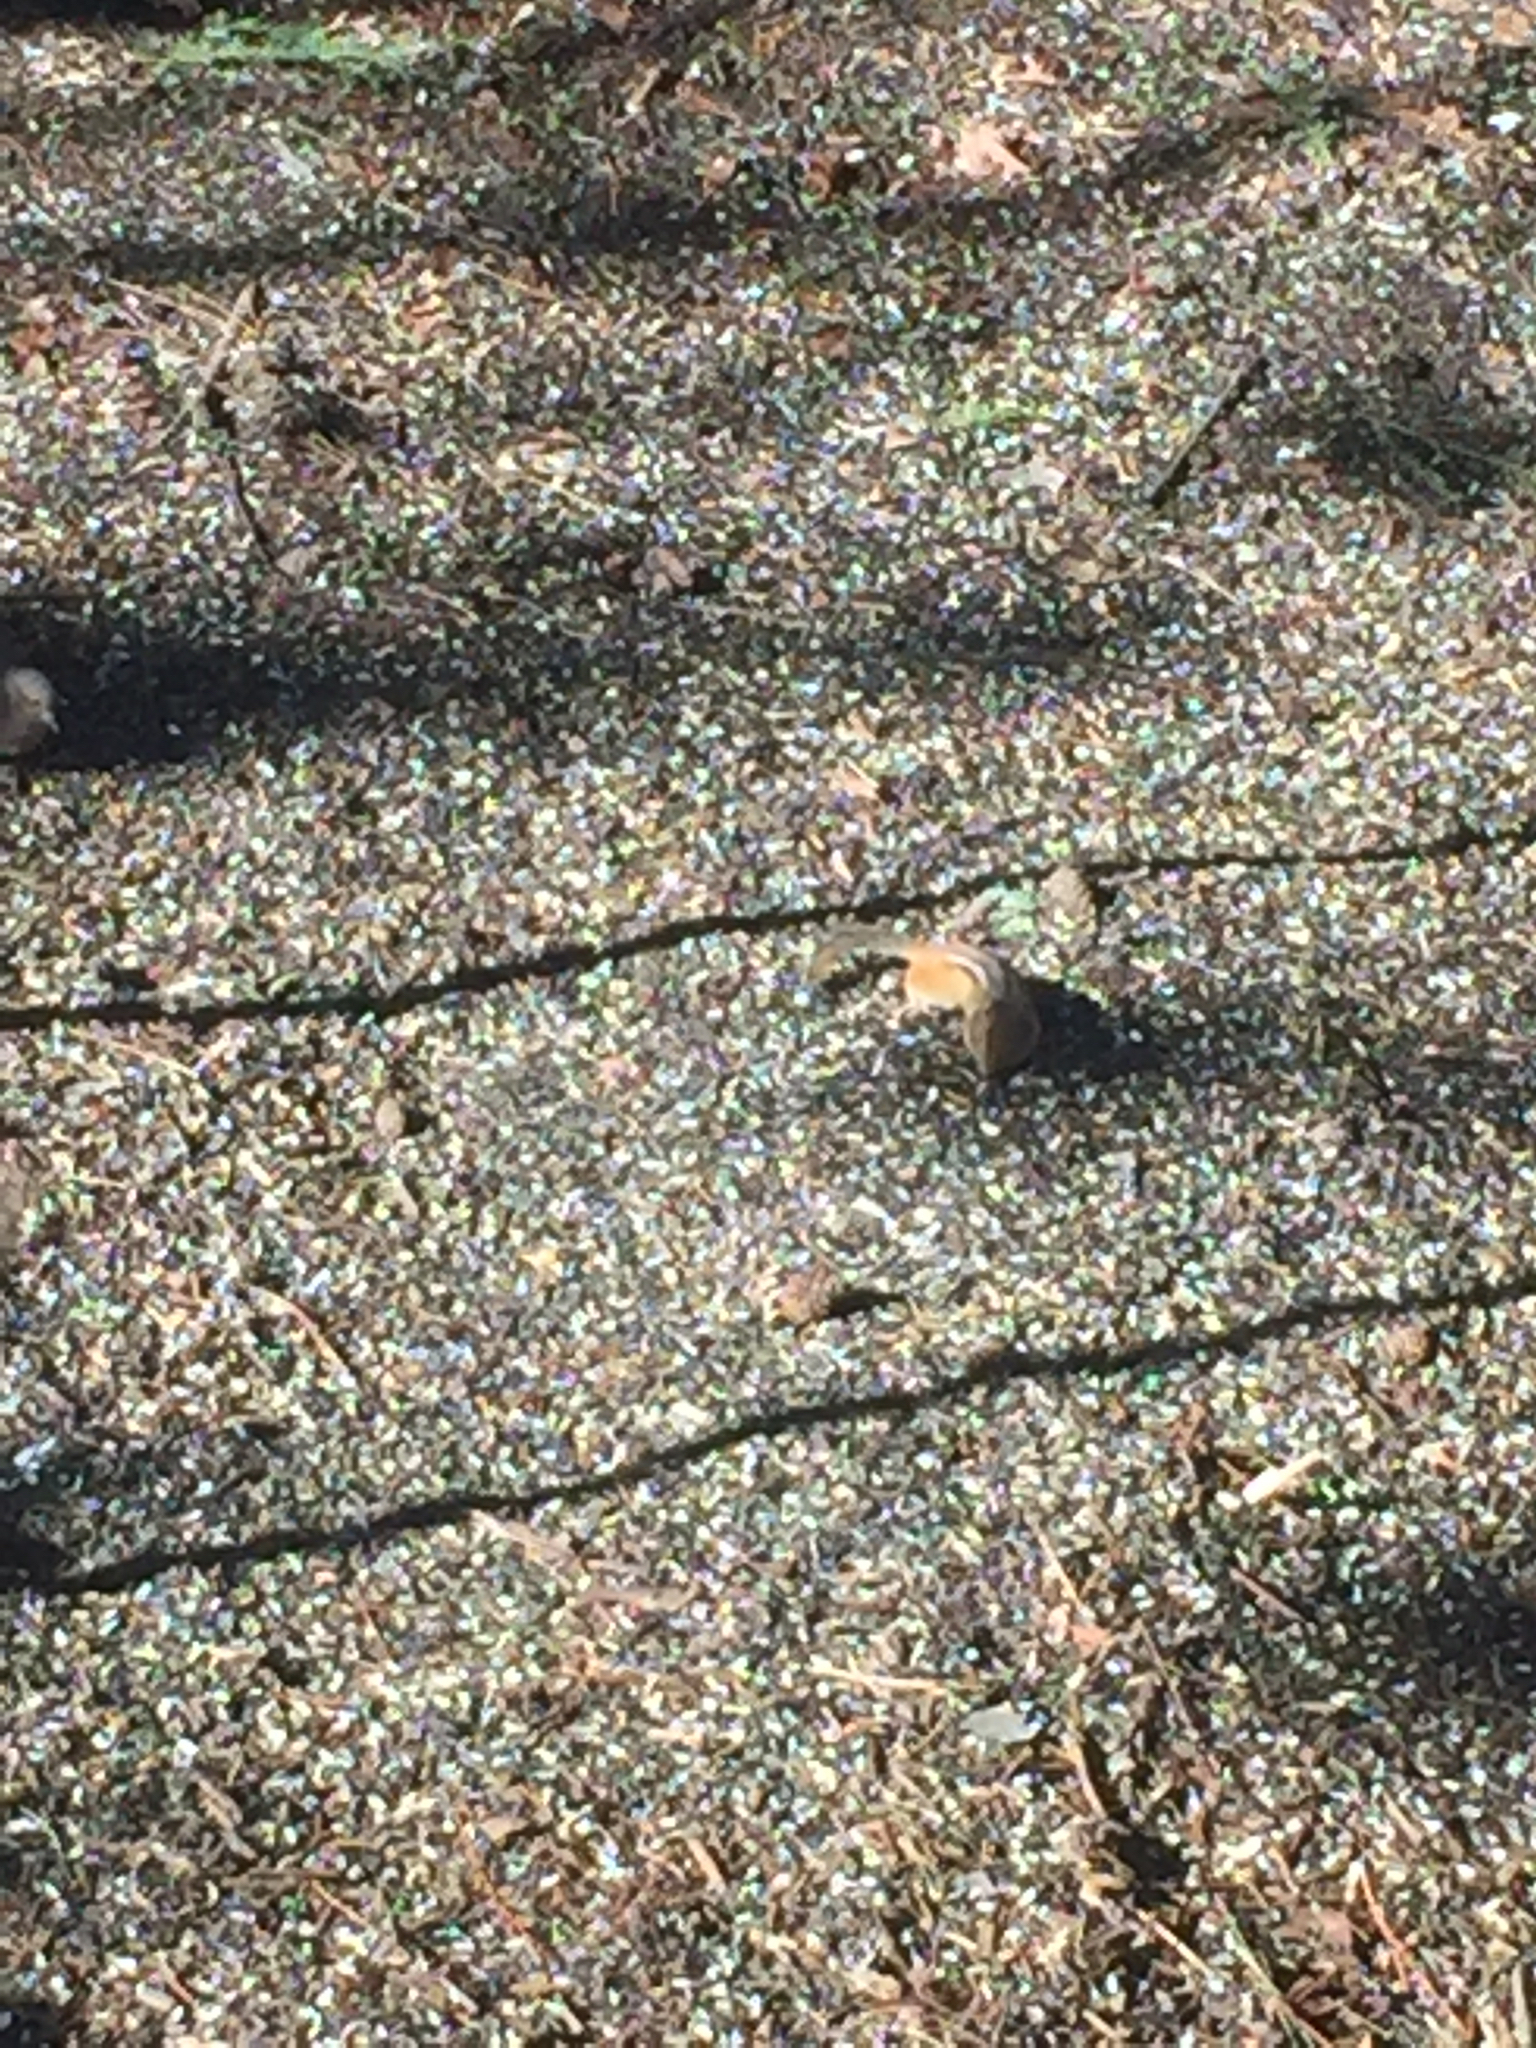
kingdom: Animalia
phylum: Chordata
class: Mammalia
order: Rodentia
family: Sciuridae
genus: Tamias
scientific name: Tamias striatus
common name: Eastern chipmunk
